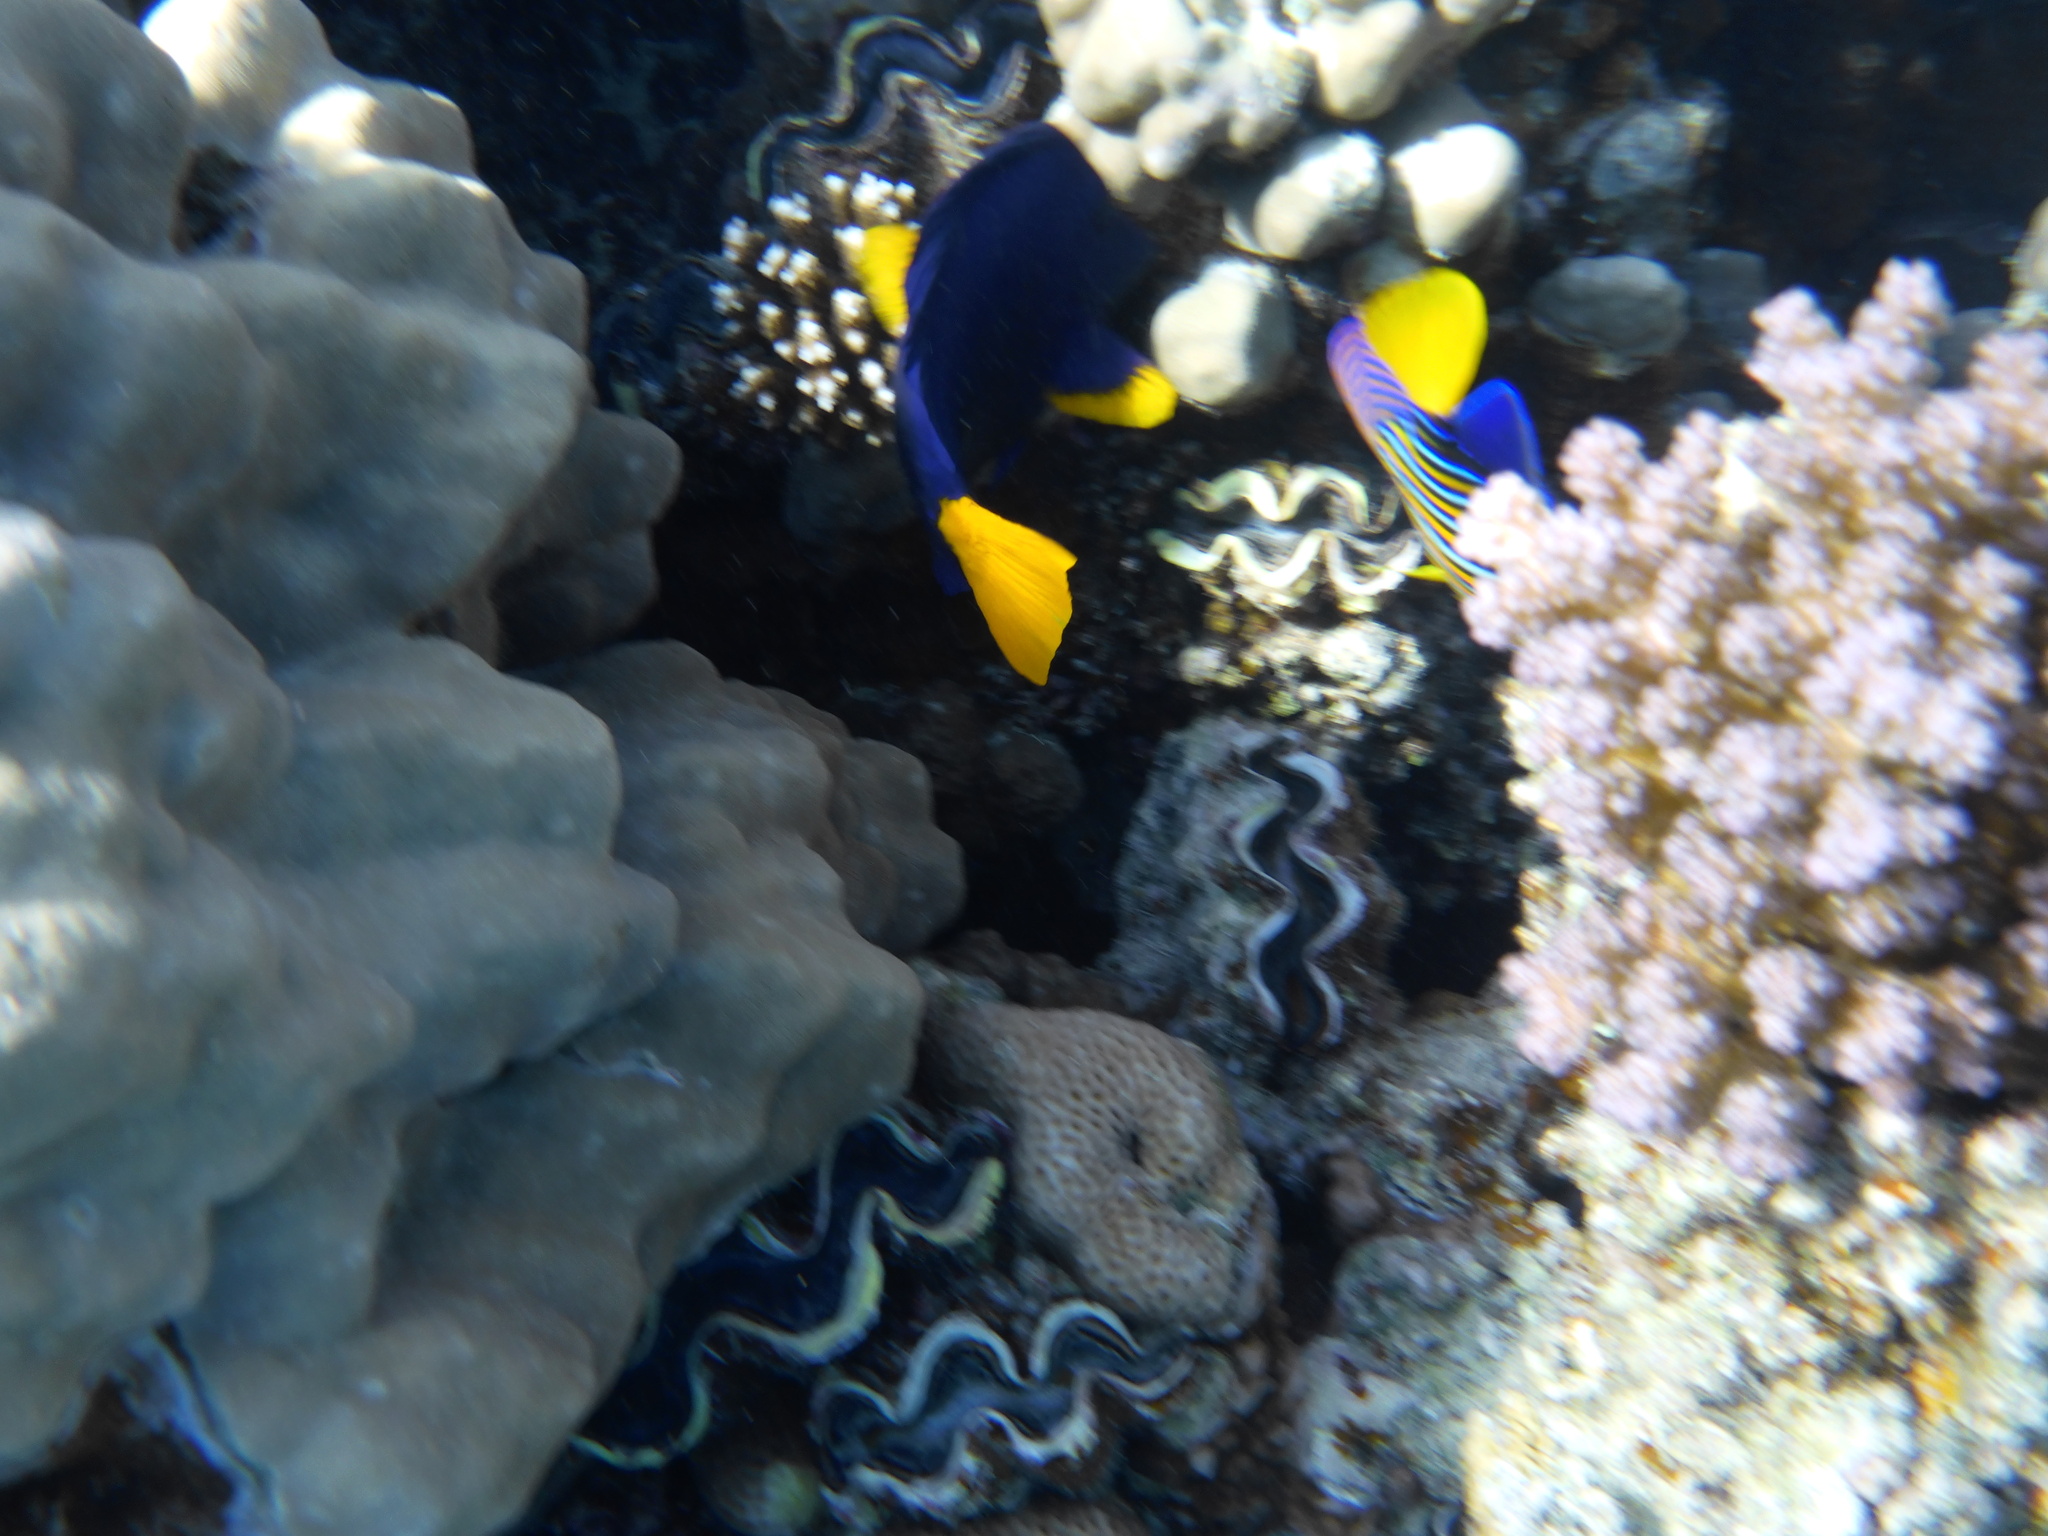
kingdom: Animalia
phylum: Chordata
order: Perciformes
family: Acanthuridae
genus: Zebrasoma
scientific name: Zebrasoma xanthurum
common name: Purple tang
